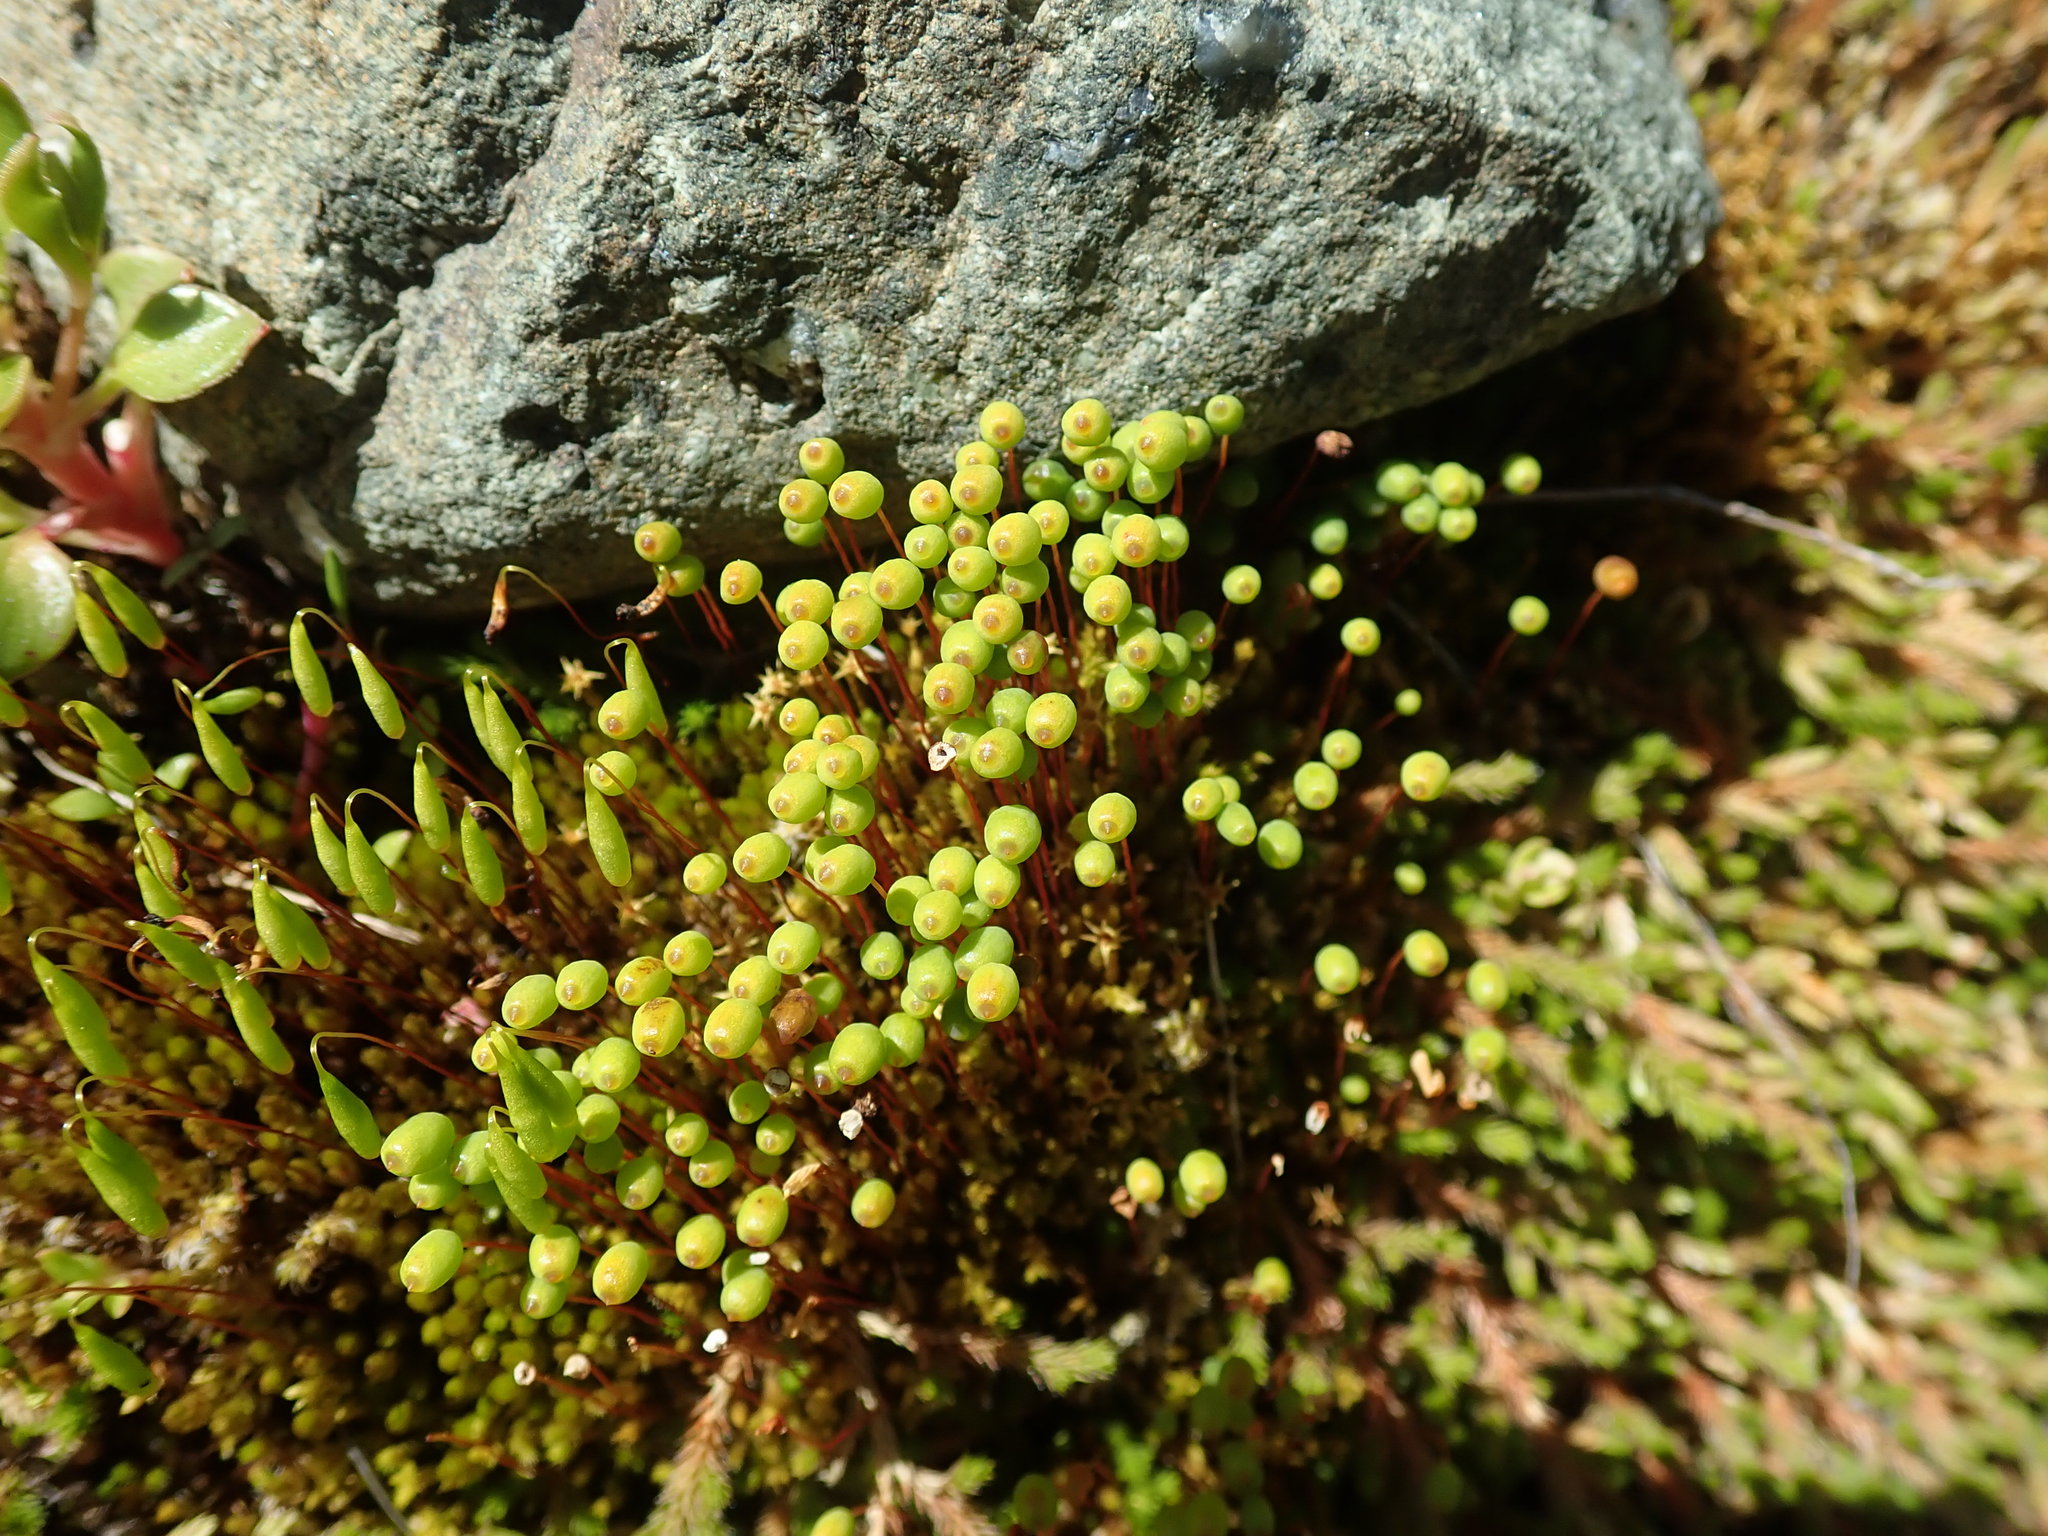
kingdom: Plantae
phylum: Bryophyta
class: Bryopsida
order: Bartramiales
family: Bartramiaceae
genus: Philonotis
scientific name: Philonotis fontana
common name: Fountain apple-moss
